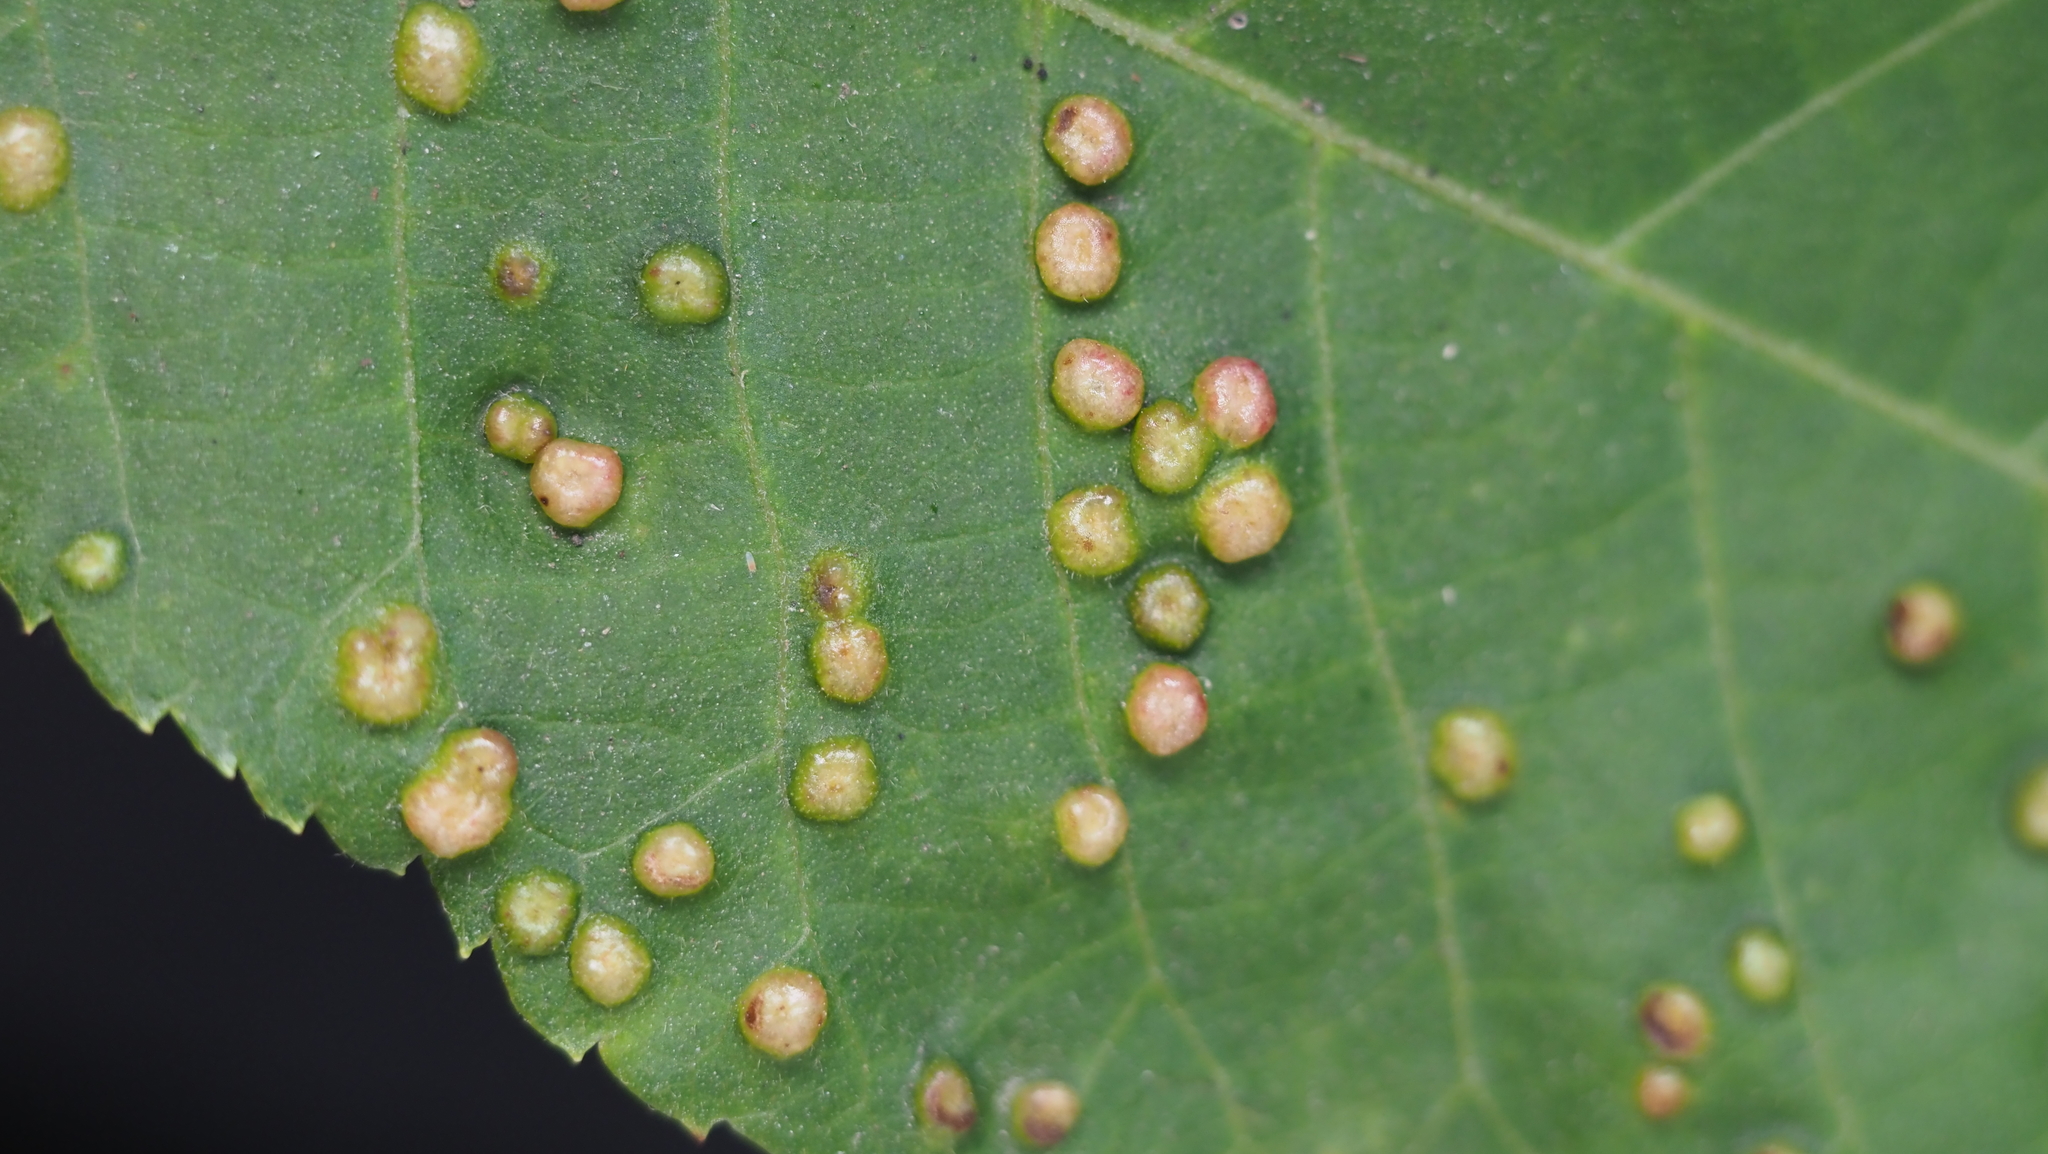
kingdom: Animalia
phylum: Arthropoda
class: Insecta
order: Hemiptera
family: Phylloxeridae
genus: Phylloxera
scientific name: Phylloxera caryae-semen
